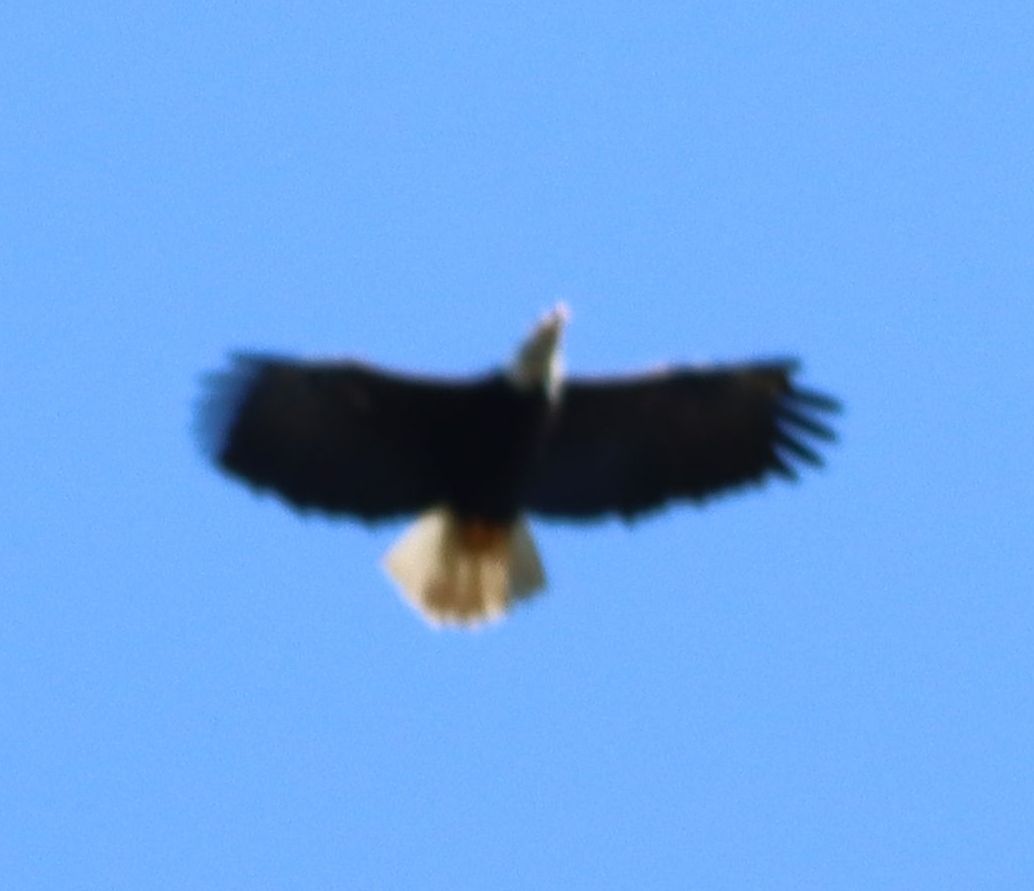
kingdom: Animalia
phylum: Chordata
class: Aves
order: Accipitriformes
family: Accipitridae
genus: Haliaeetus
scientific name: Haliaeetus leucocephalus
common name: Bald eagle
